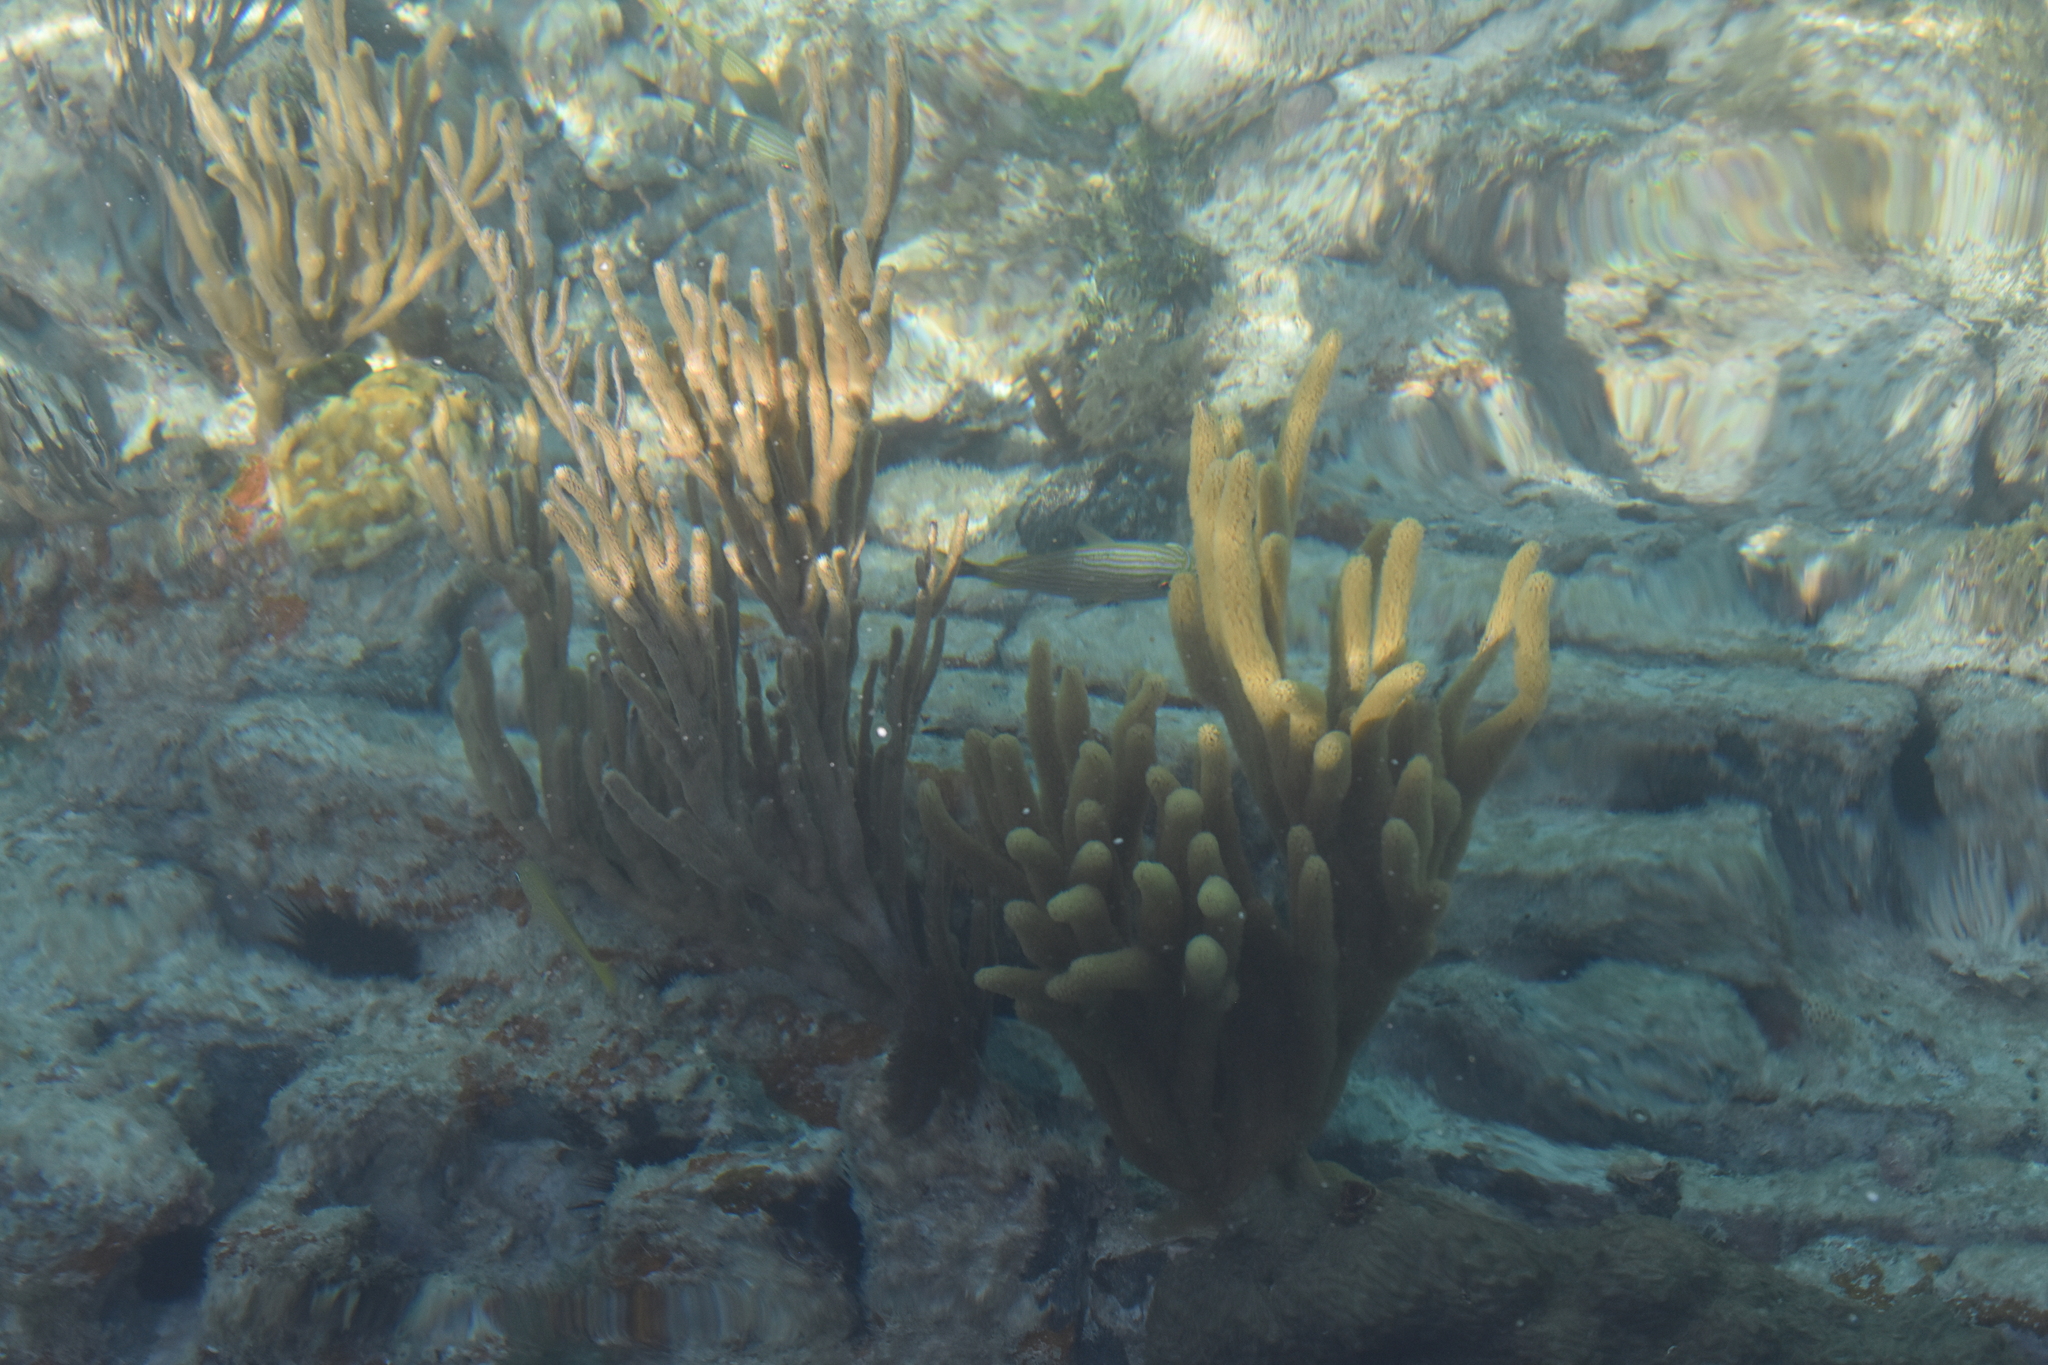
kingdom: Animalia
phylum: Chordata
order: Perciformes
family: Haemulidae
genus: Haemulon
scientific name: Haemulon sciurus
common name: Bluestriped grunt
